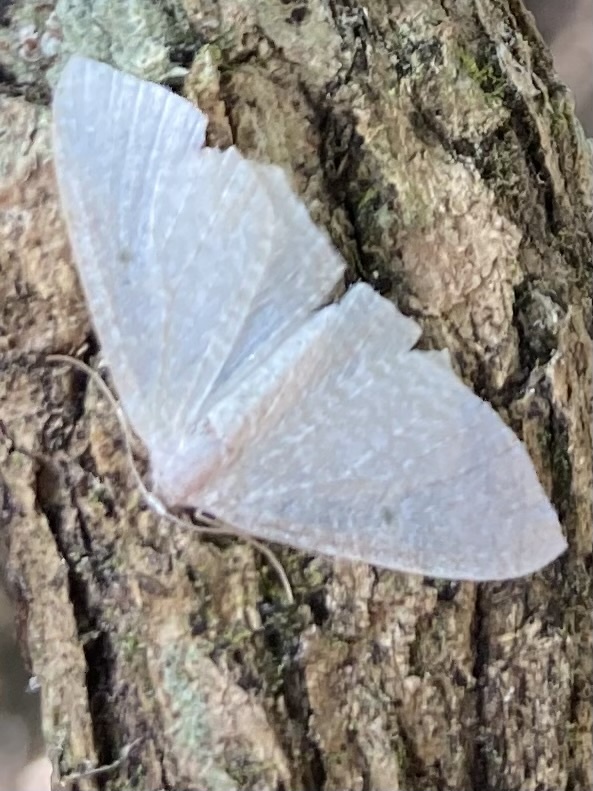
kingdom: Animalia
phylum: Arthropoda
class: Insecta
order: Lepidoptera
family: Geometridae
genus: Poecilasthena
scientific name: Poecilasthena pulchraria
